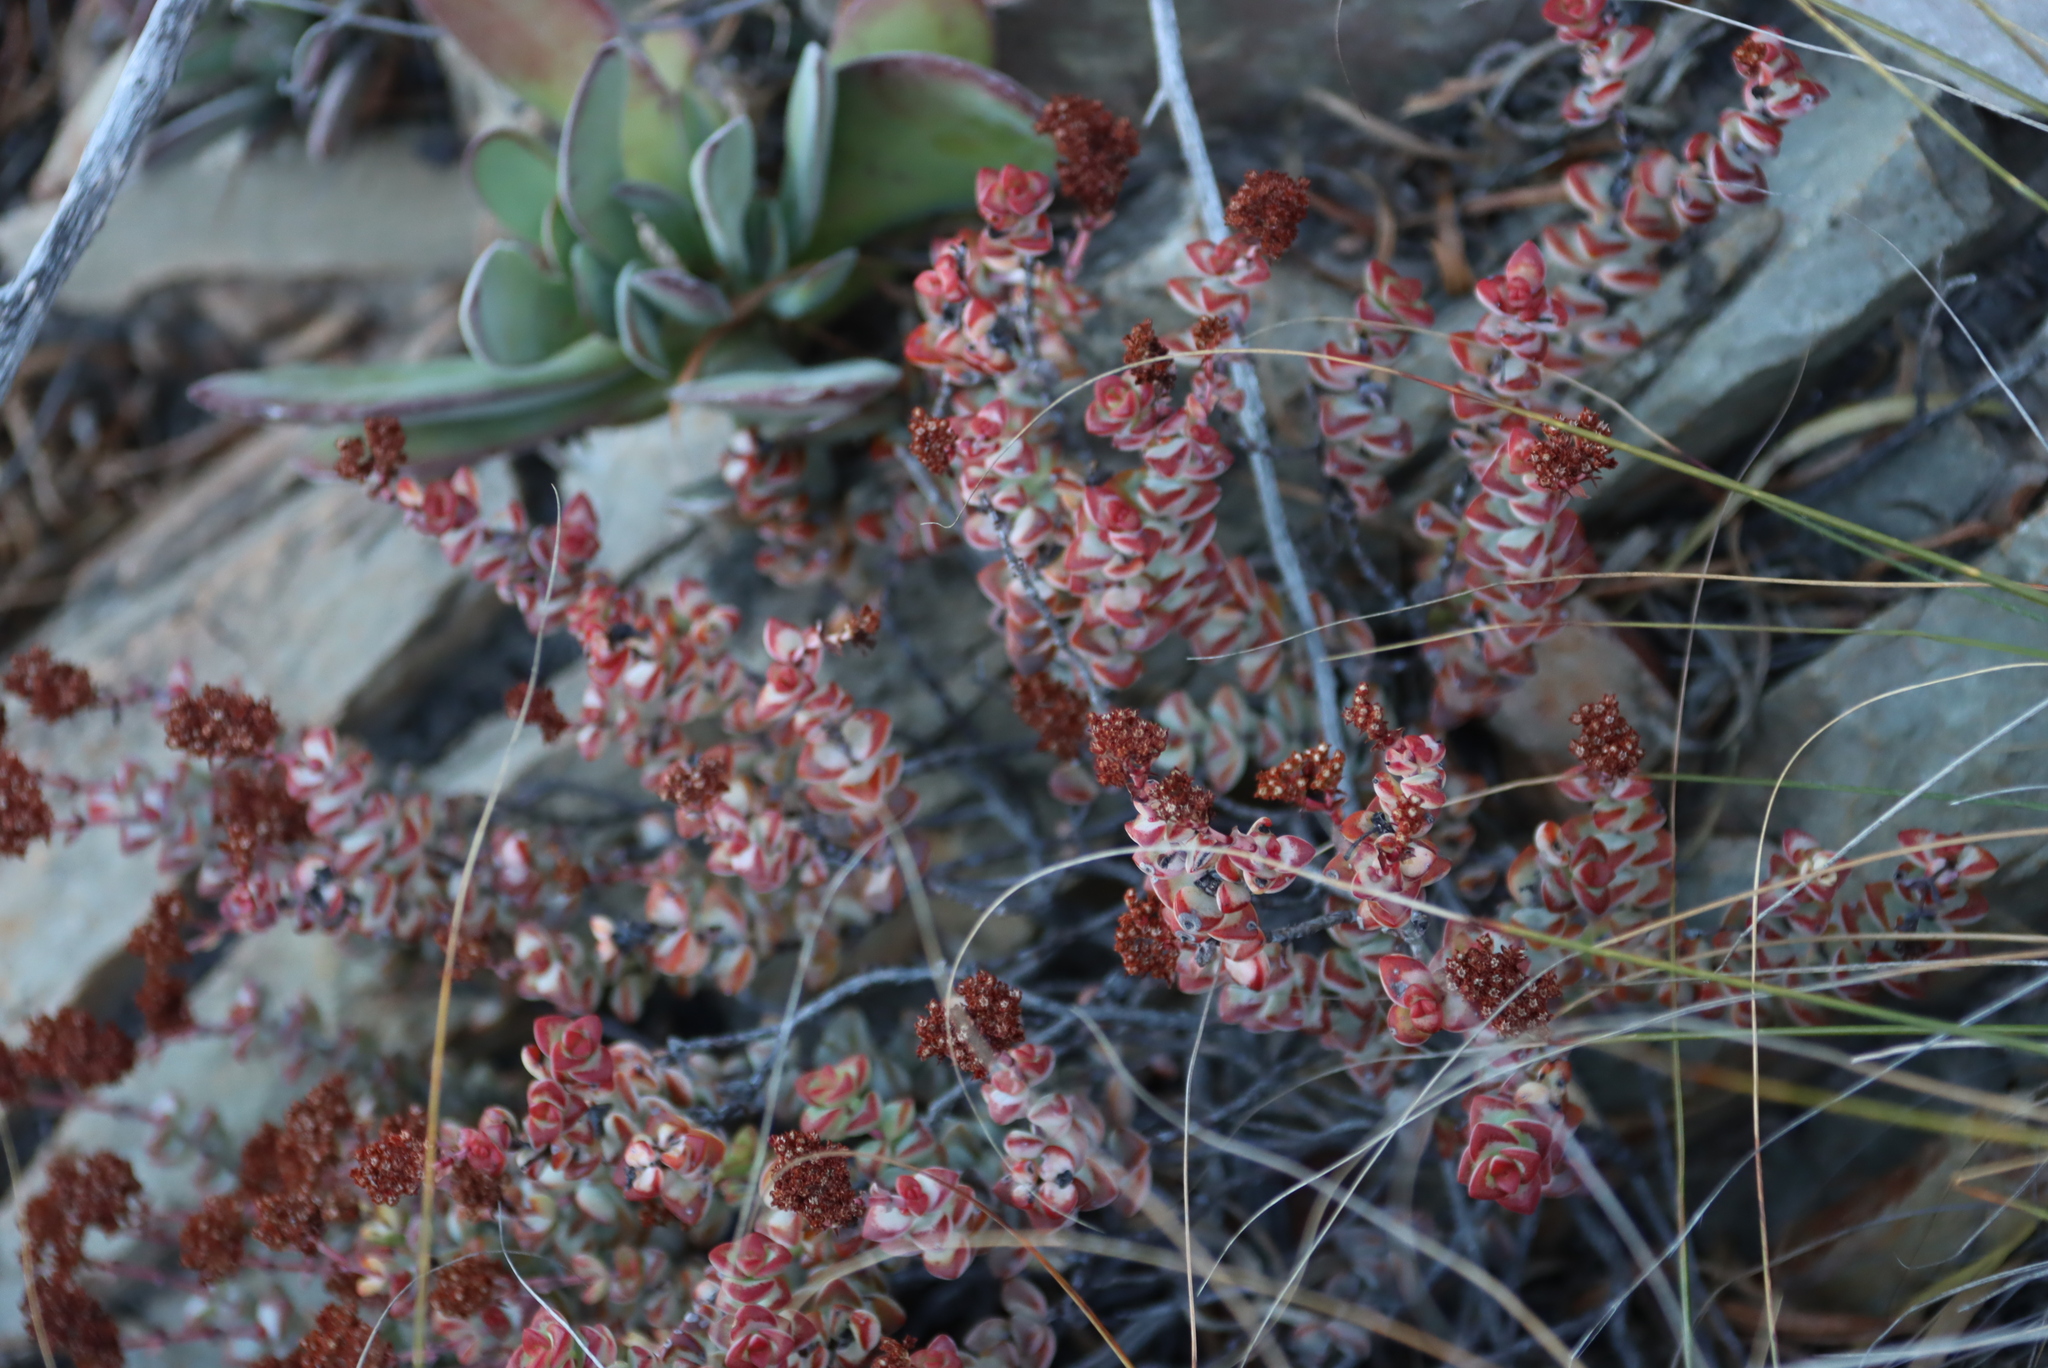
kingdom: Plantae
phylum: Tracheophyta
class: Magnoliopsida
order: Saxifragales
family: Crassulaceae
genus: Crassula
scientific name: Crassula rupestris
